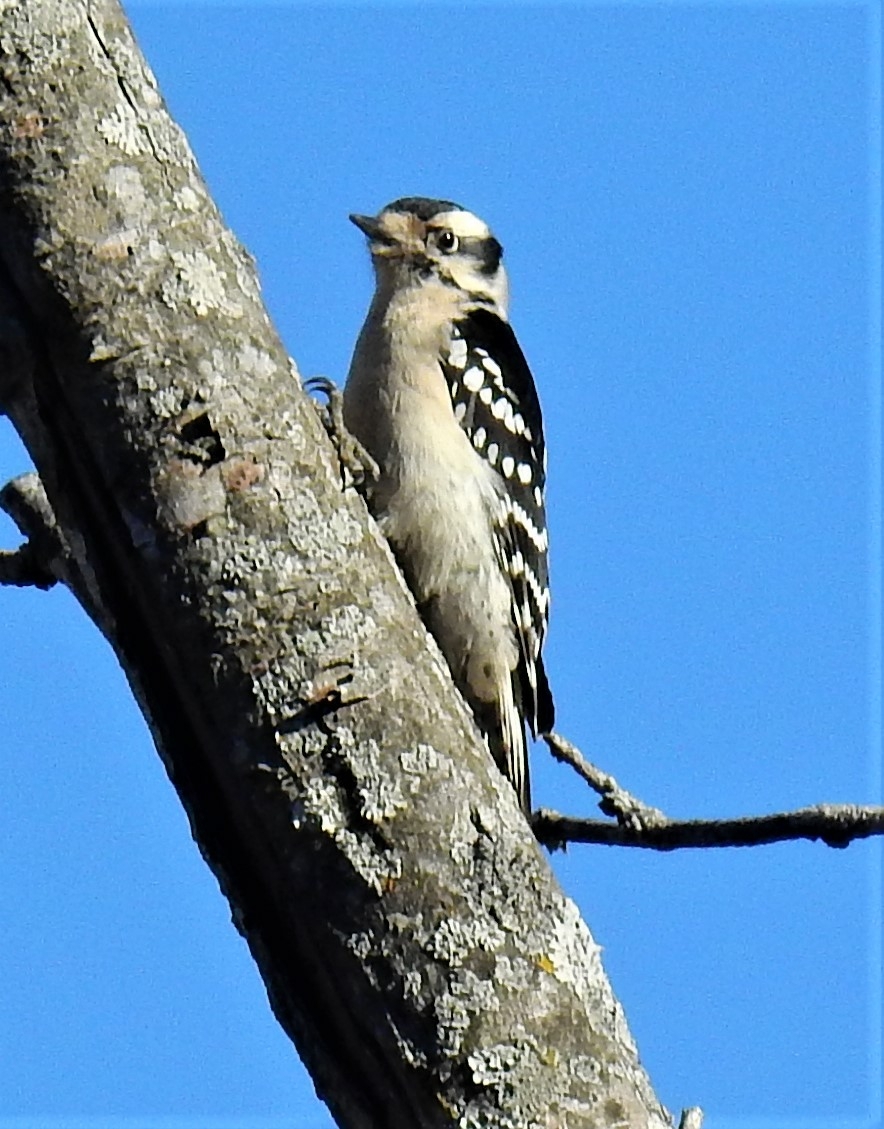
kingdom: Animalia
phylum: Chordata
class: Aves
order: Piciformes
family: Picidae
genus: Dryobates
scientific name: Dryobates pubescens
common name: Downy woodpecker
